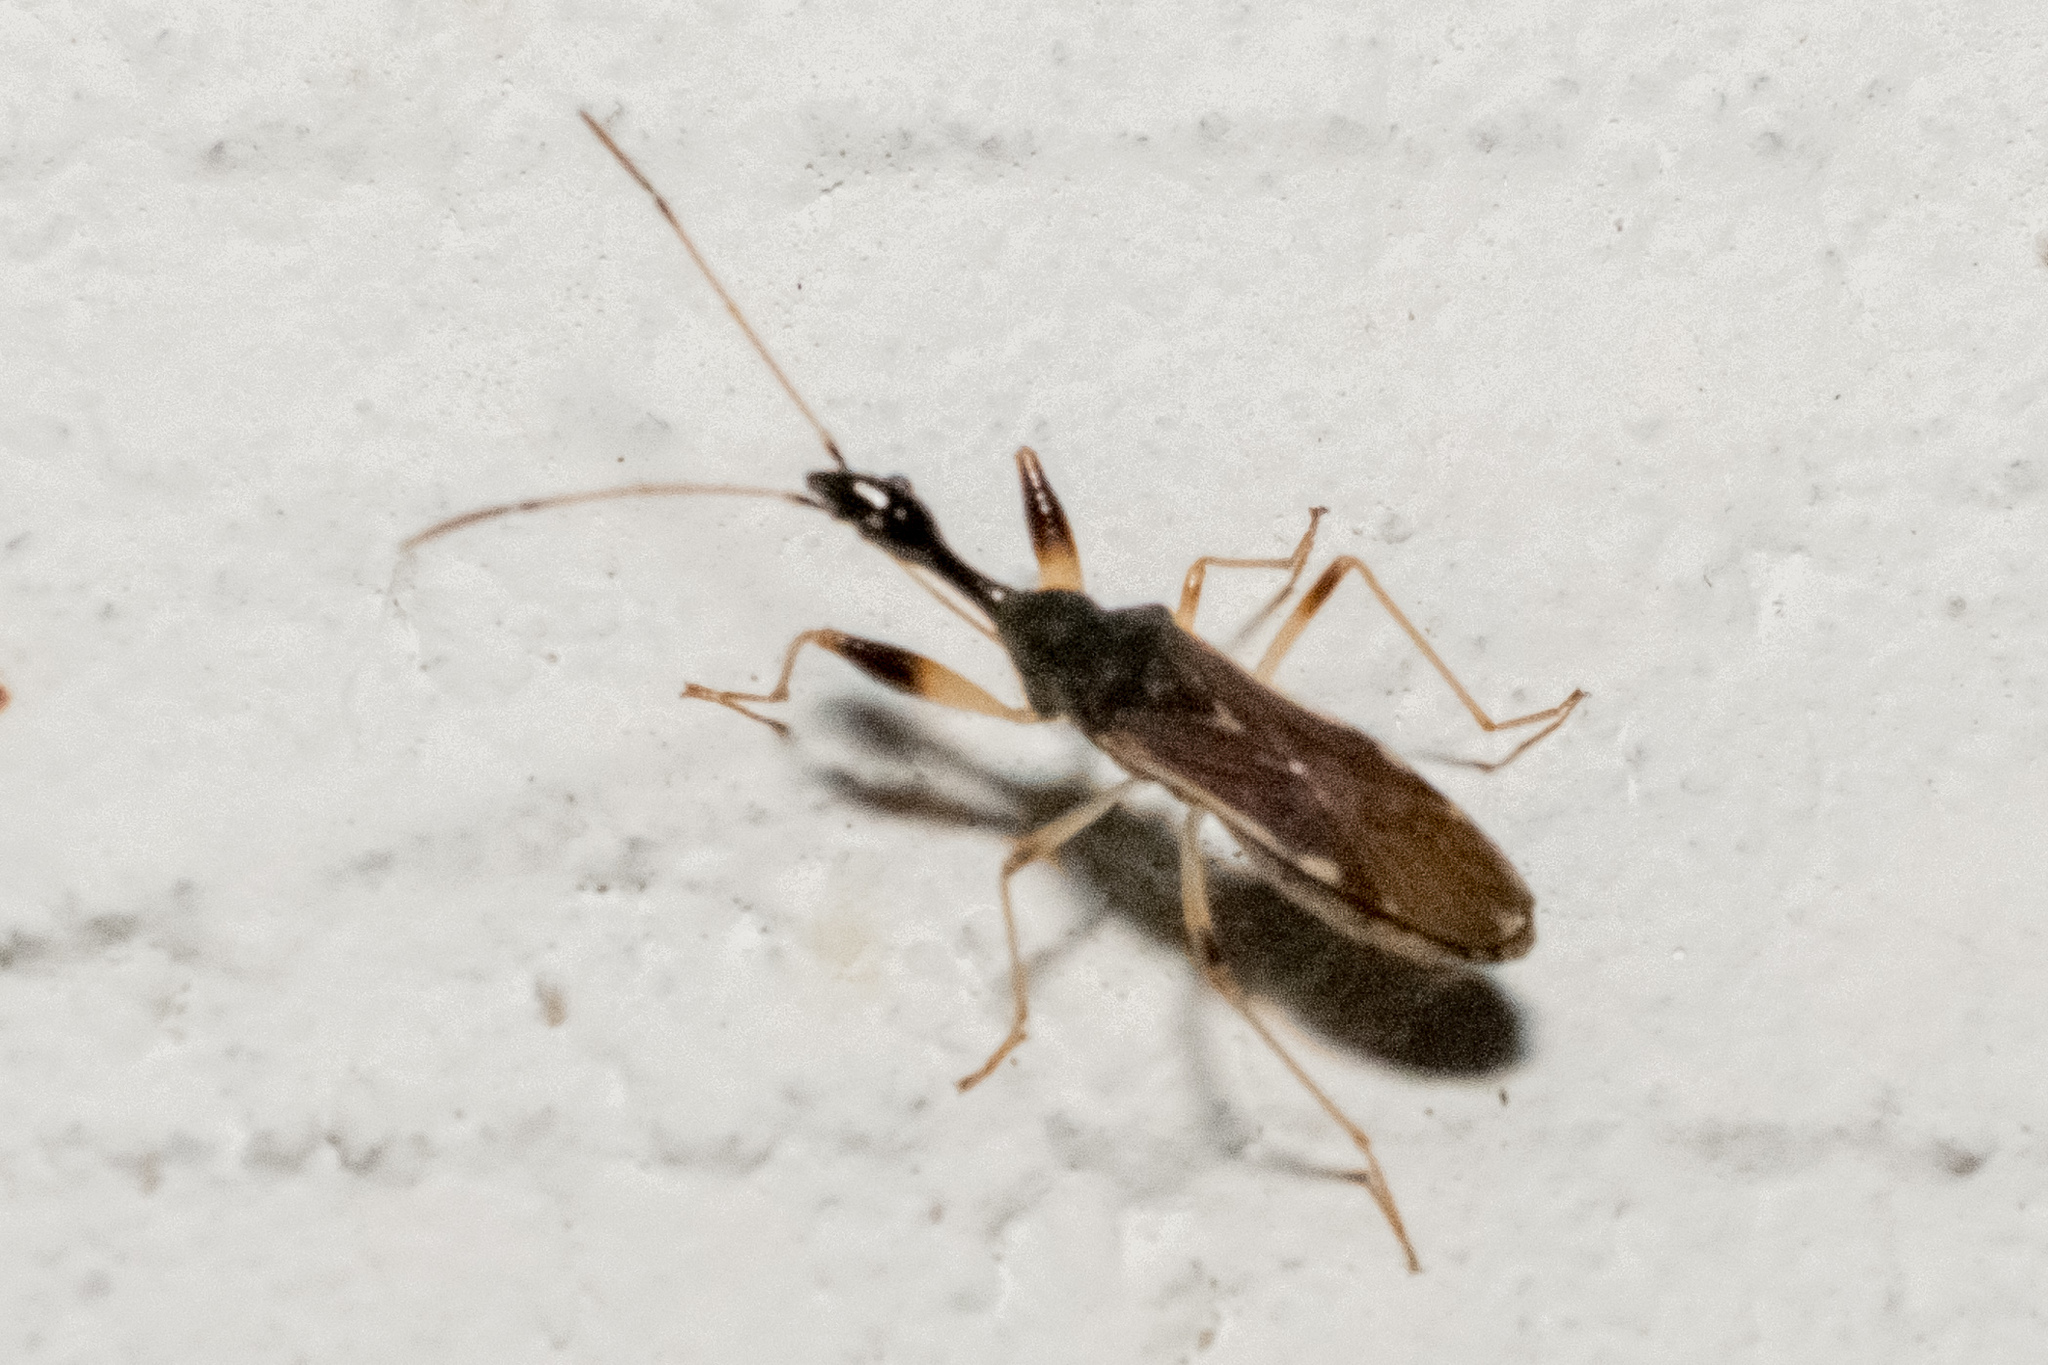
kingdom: Animalia
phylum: Arthropoda
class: Insecta
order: Hemiptera
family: Rhyparochromidae
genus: Myodocha
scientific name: Myodocha serripes
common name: Long-necked seed bug
